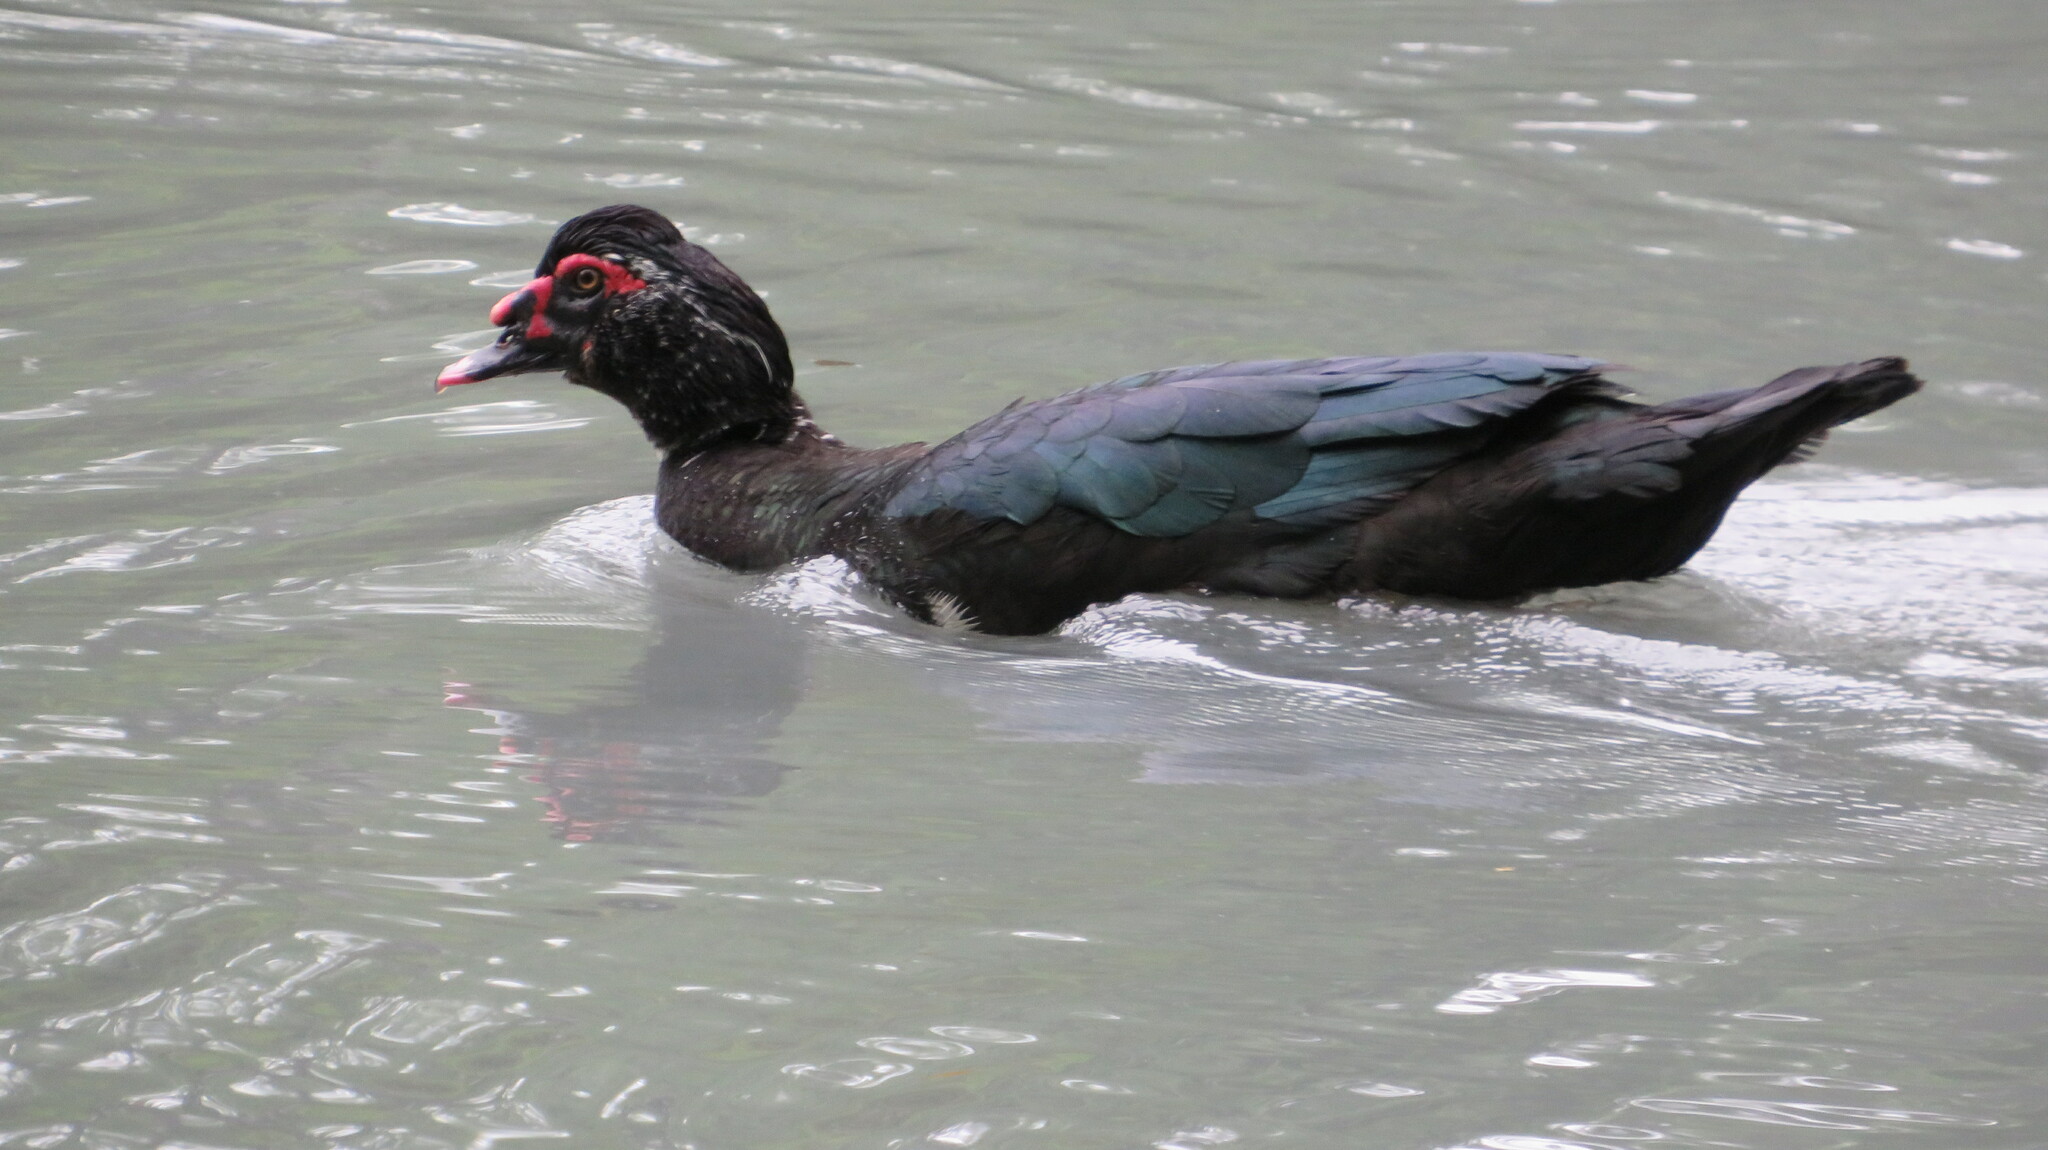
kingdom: Animalia
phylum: Chordata
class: Aves
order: Anseriformes
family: Anatidae
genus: Cairina
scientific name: Cairina moschata
